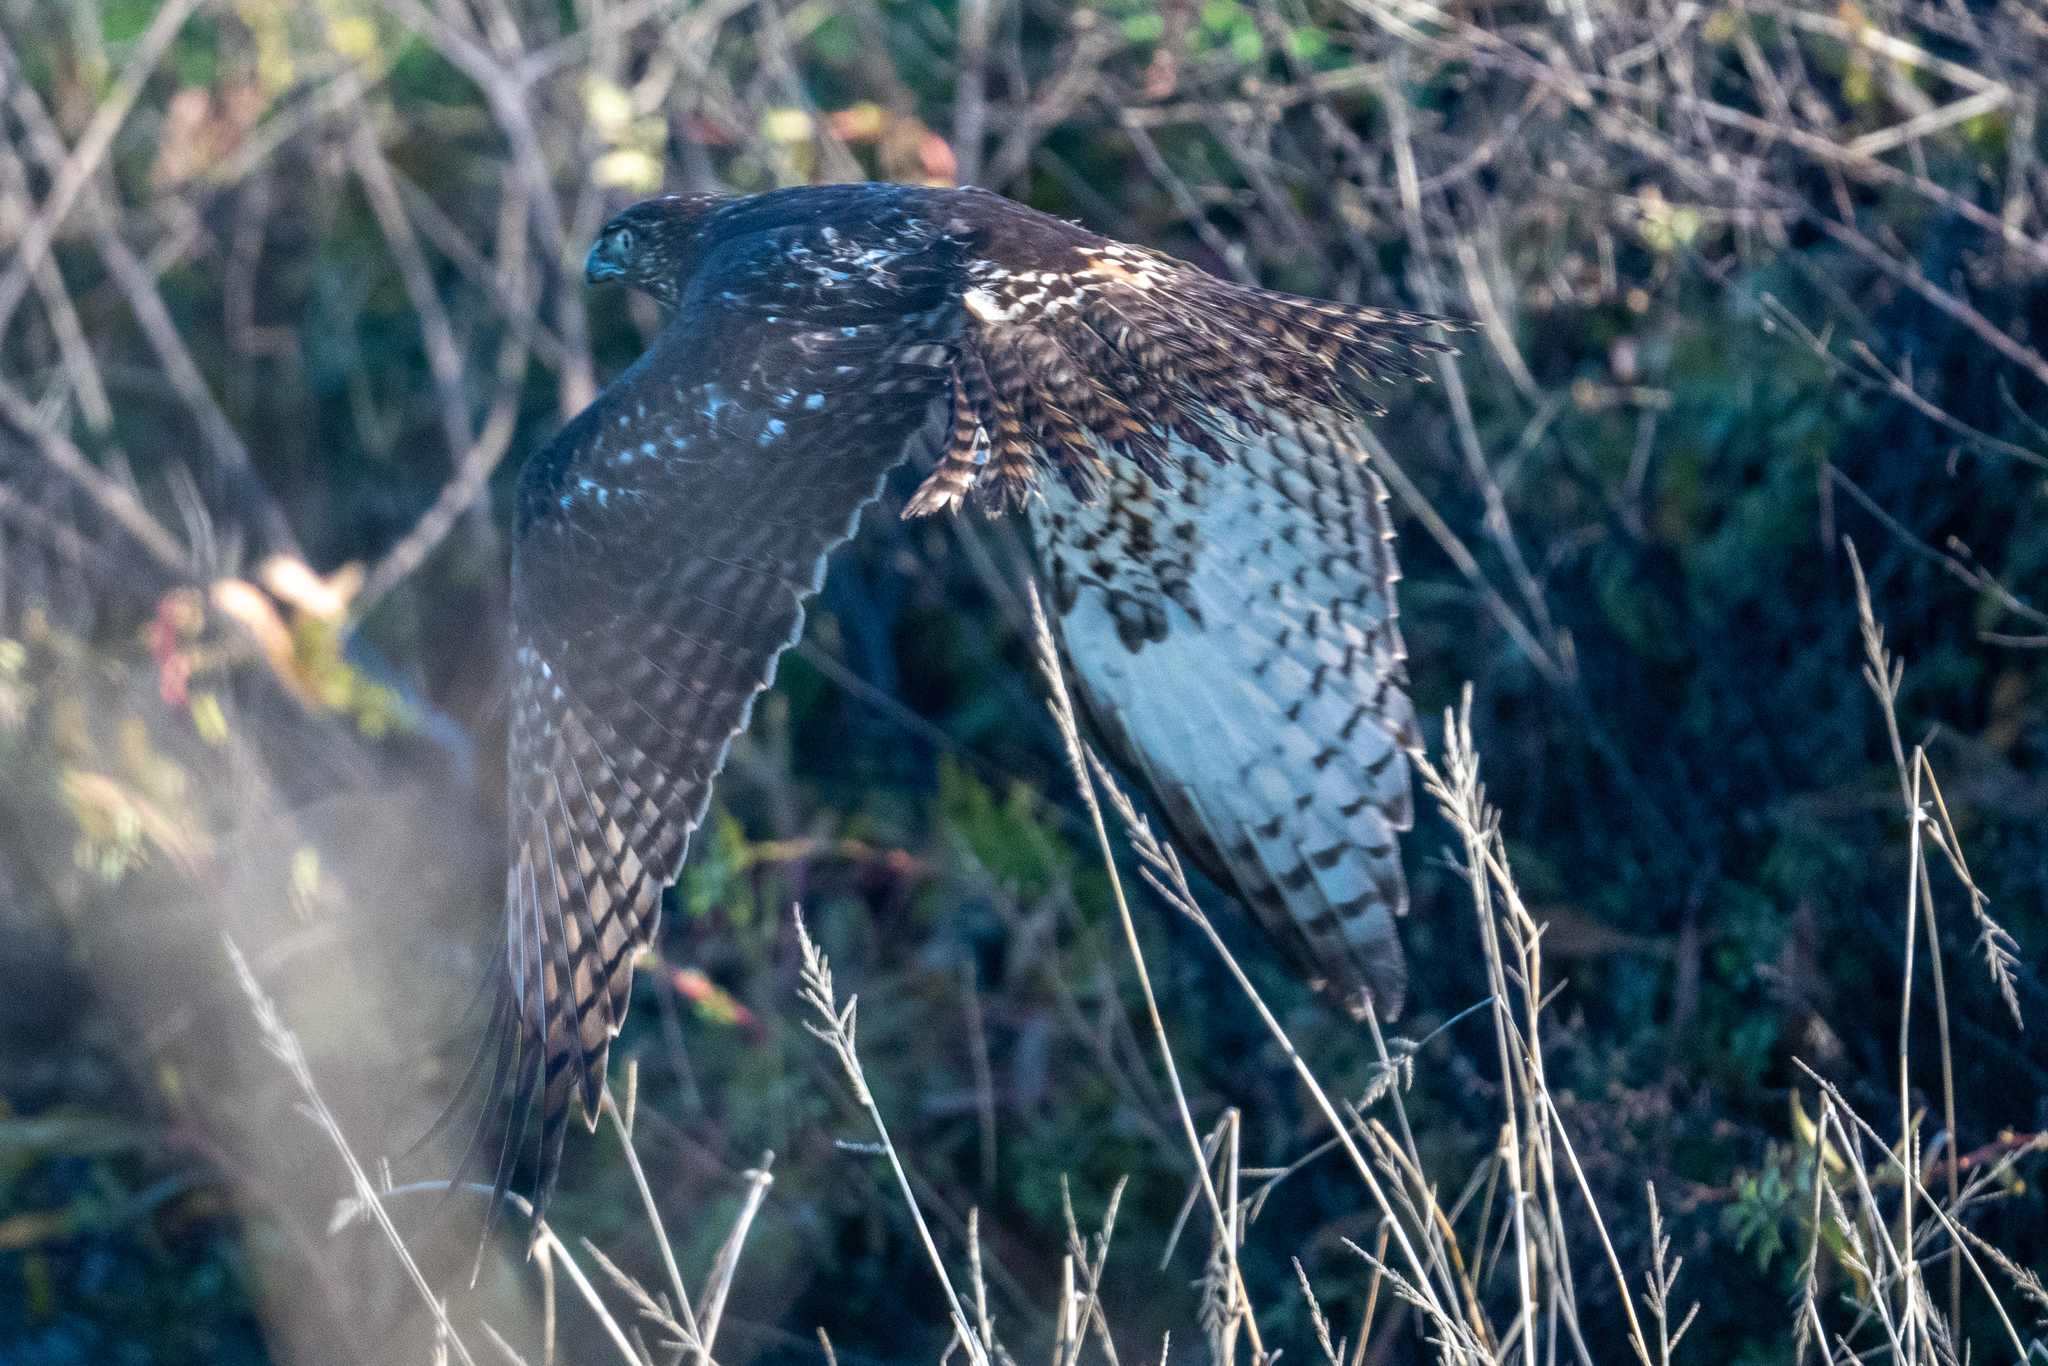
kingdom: Animalia
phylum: Chordata
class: Aves
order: Accipitriformes
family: Accipitridae
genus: Buteo
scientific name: Buteo jamaicensis
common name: Red-tailed hawk
